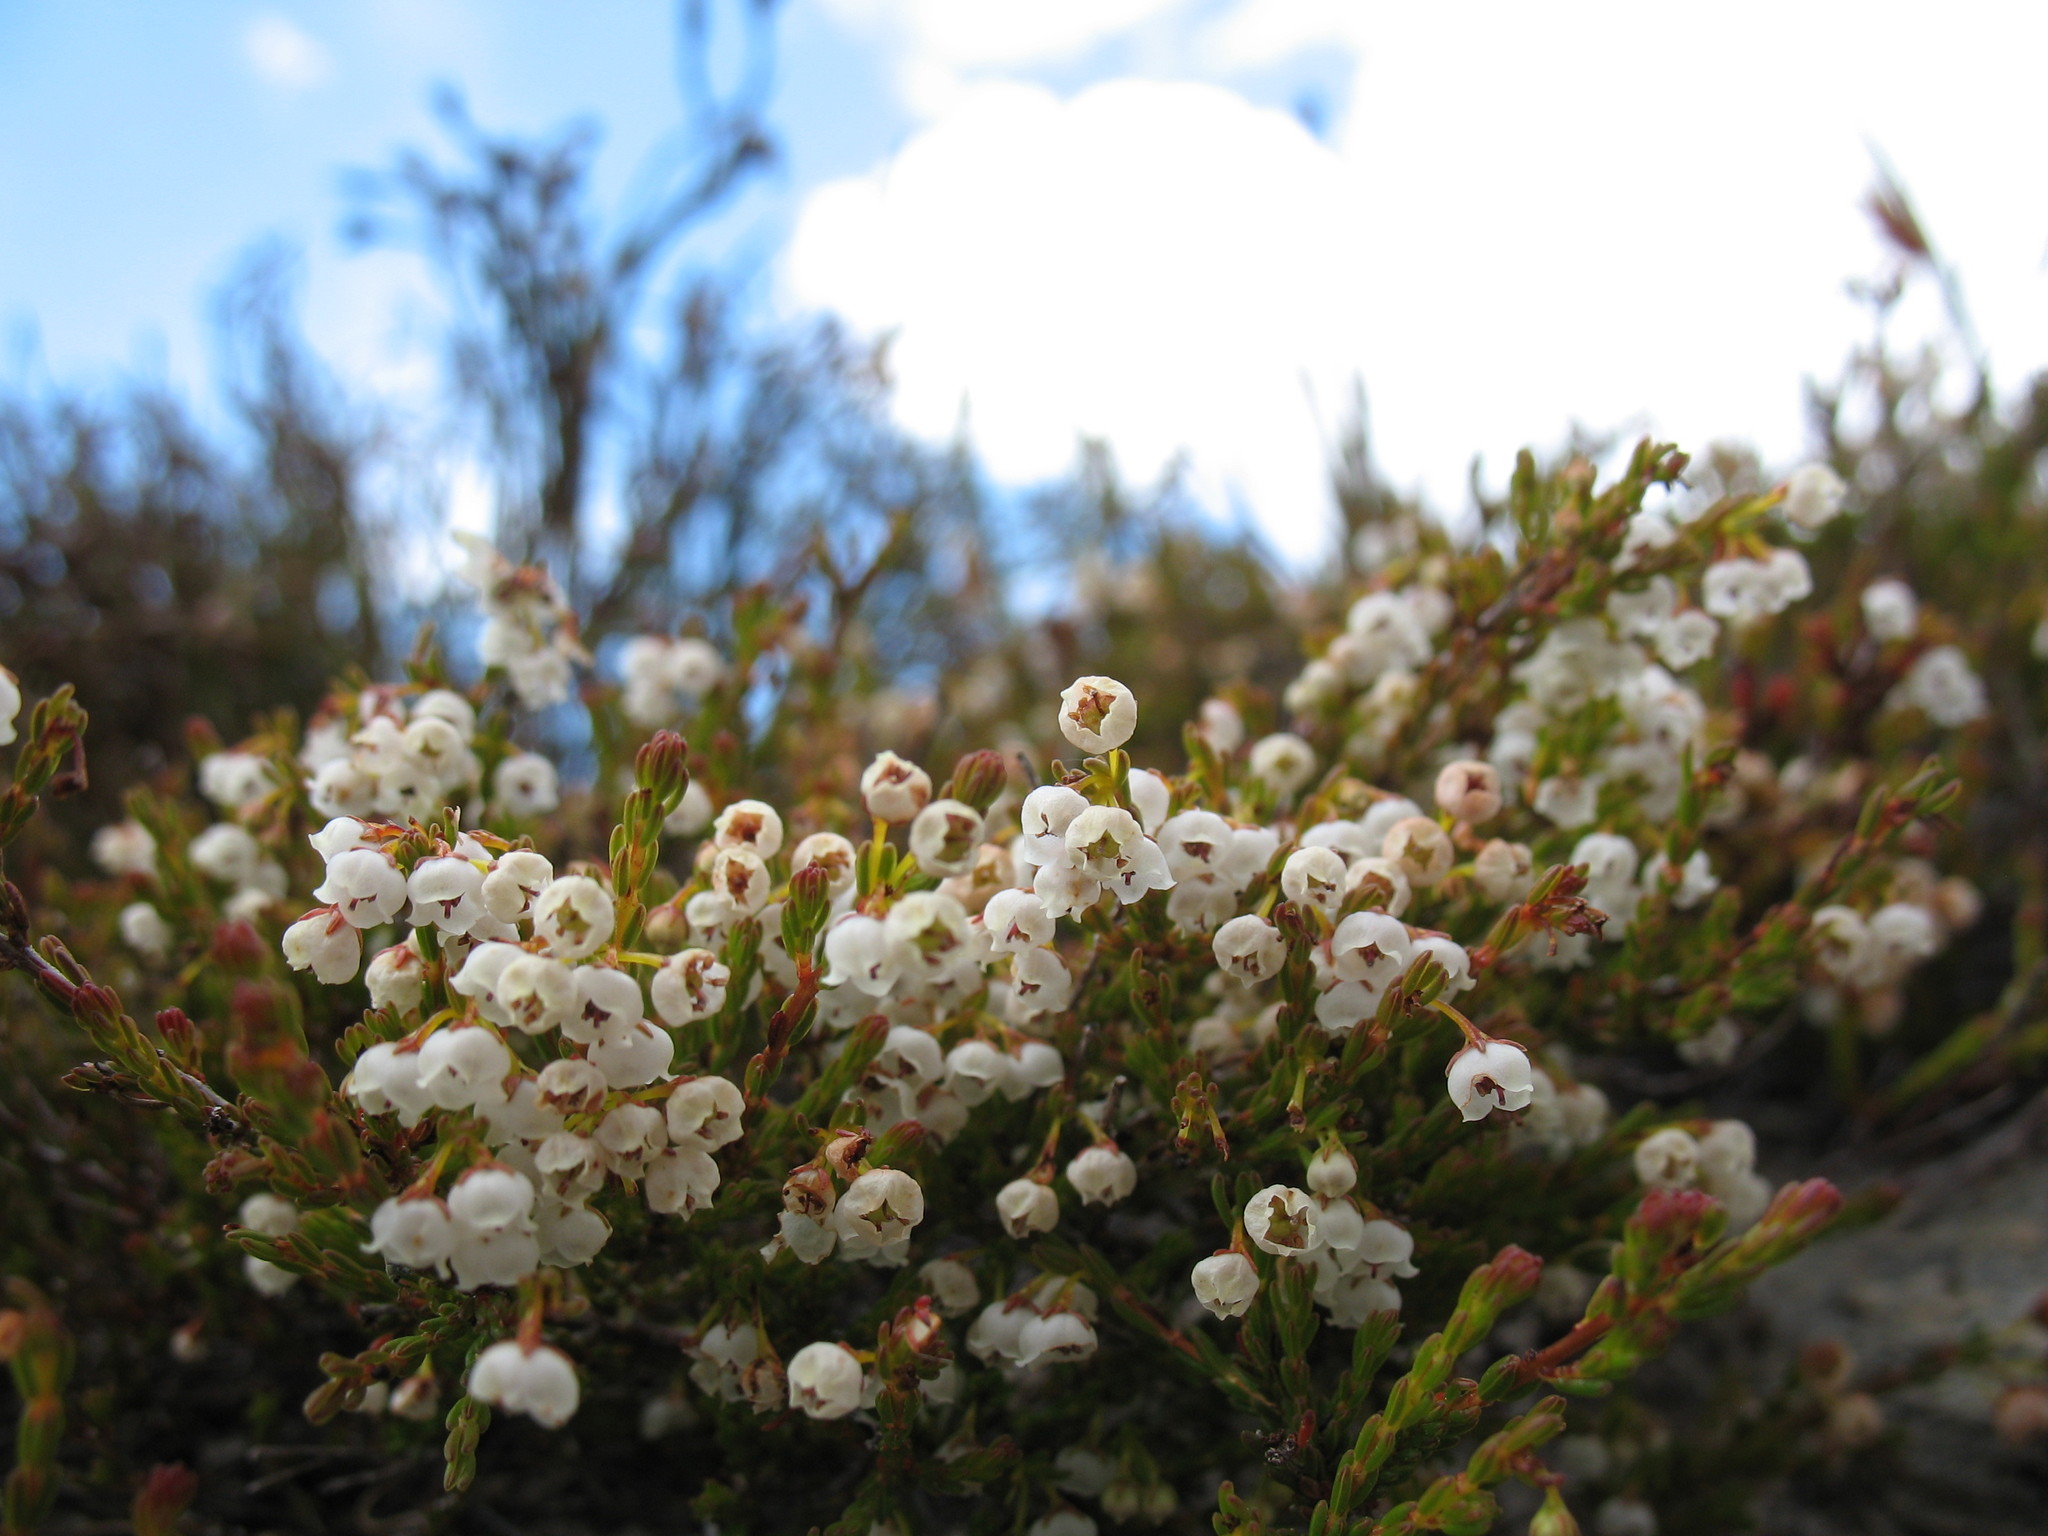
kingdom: Plantae
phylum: Tracheophyta
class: Magnoliopsida
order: Ericales
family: Ericaceae
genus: Erica
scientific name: Erica leptopus
